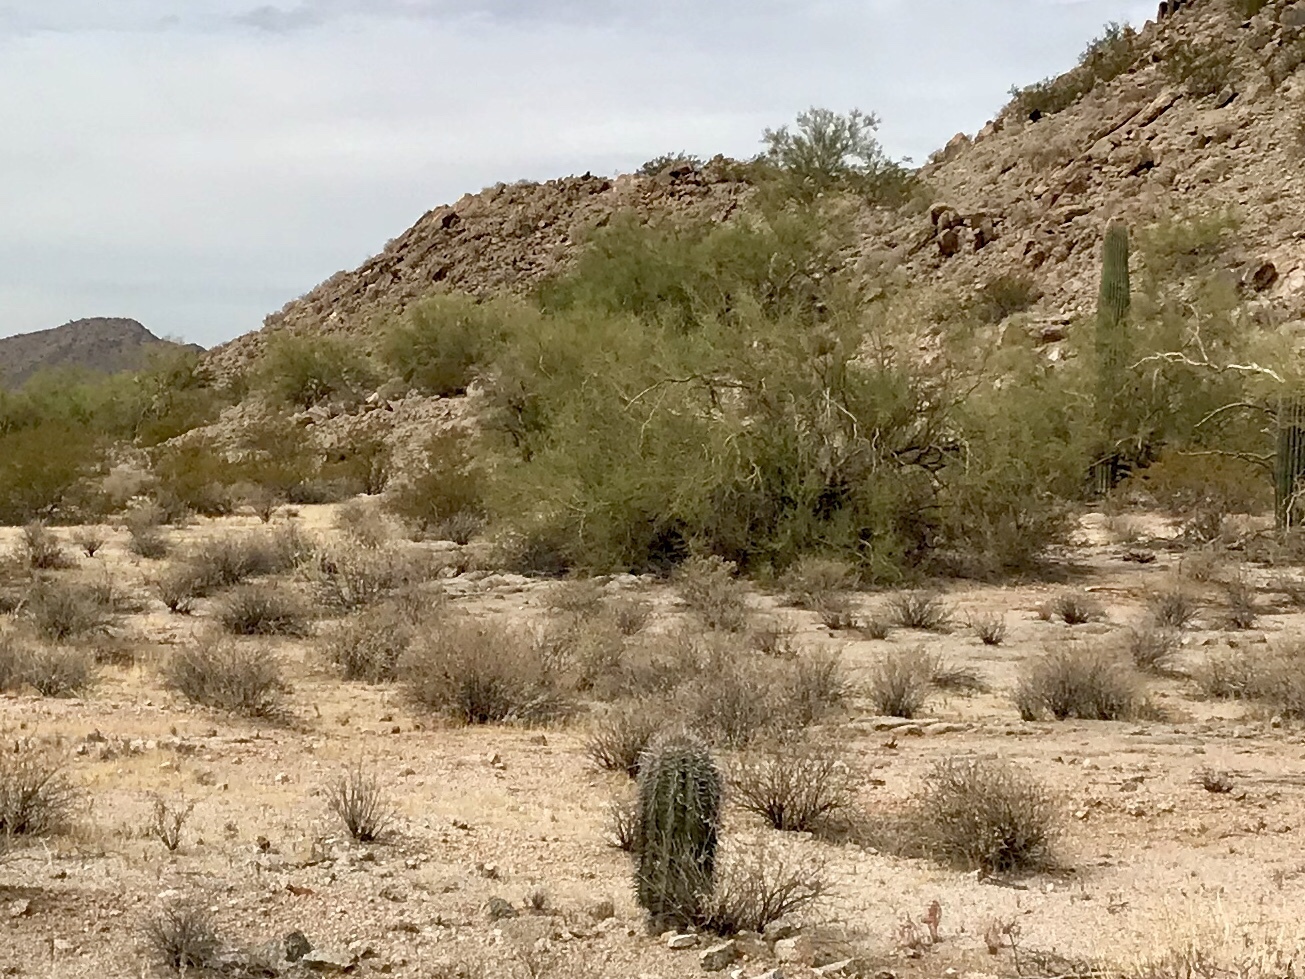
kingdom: Plantae
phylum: Tracheophyta
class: Magnoliopsida
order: Caryophyllales
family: Cactaceae
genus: Carnegiea
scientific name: Carnegiea gigantea
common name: Saguaro
